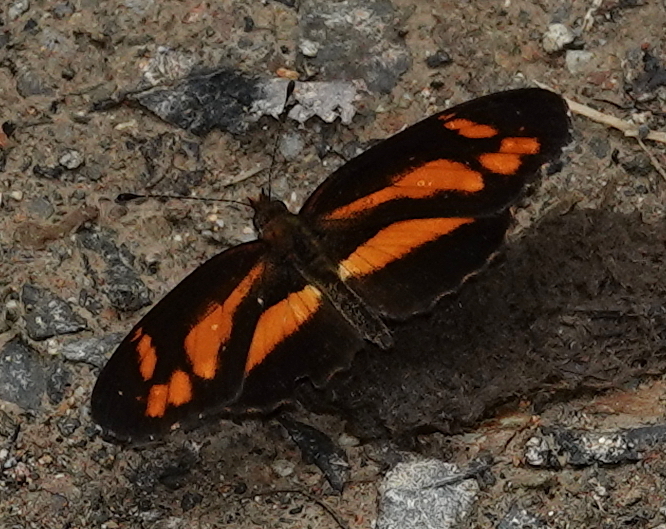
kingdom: Animalia
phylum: Arthropoda
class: Insecta
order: Lepidoptera
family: Nymphalidae
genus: Castilia
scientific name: Castilia eranites
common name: Smudged crescent
